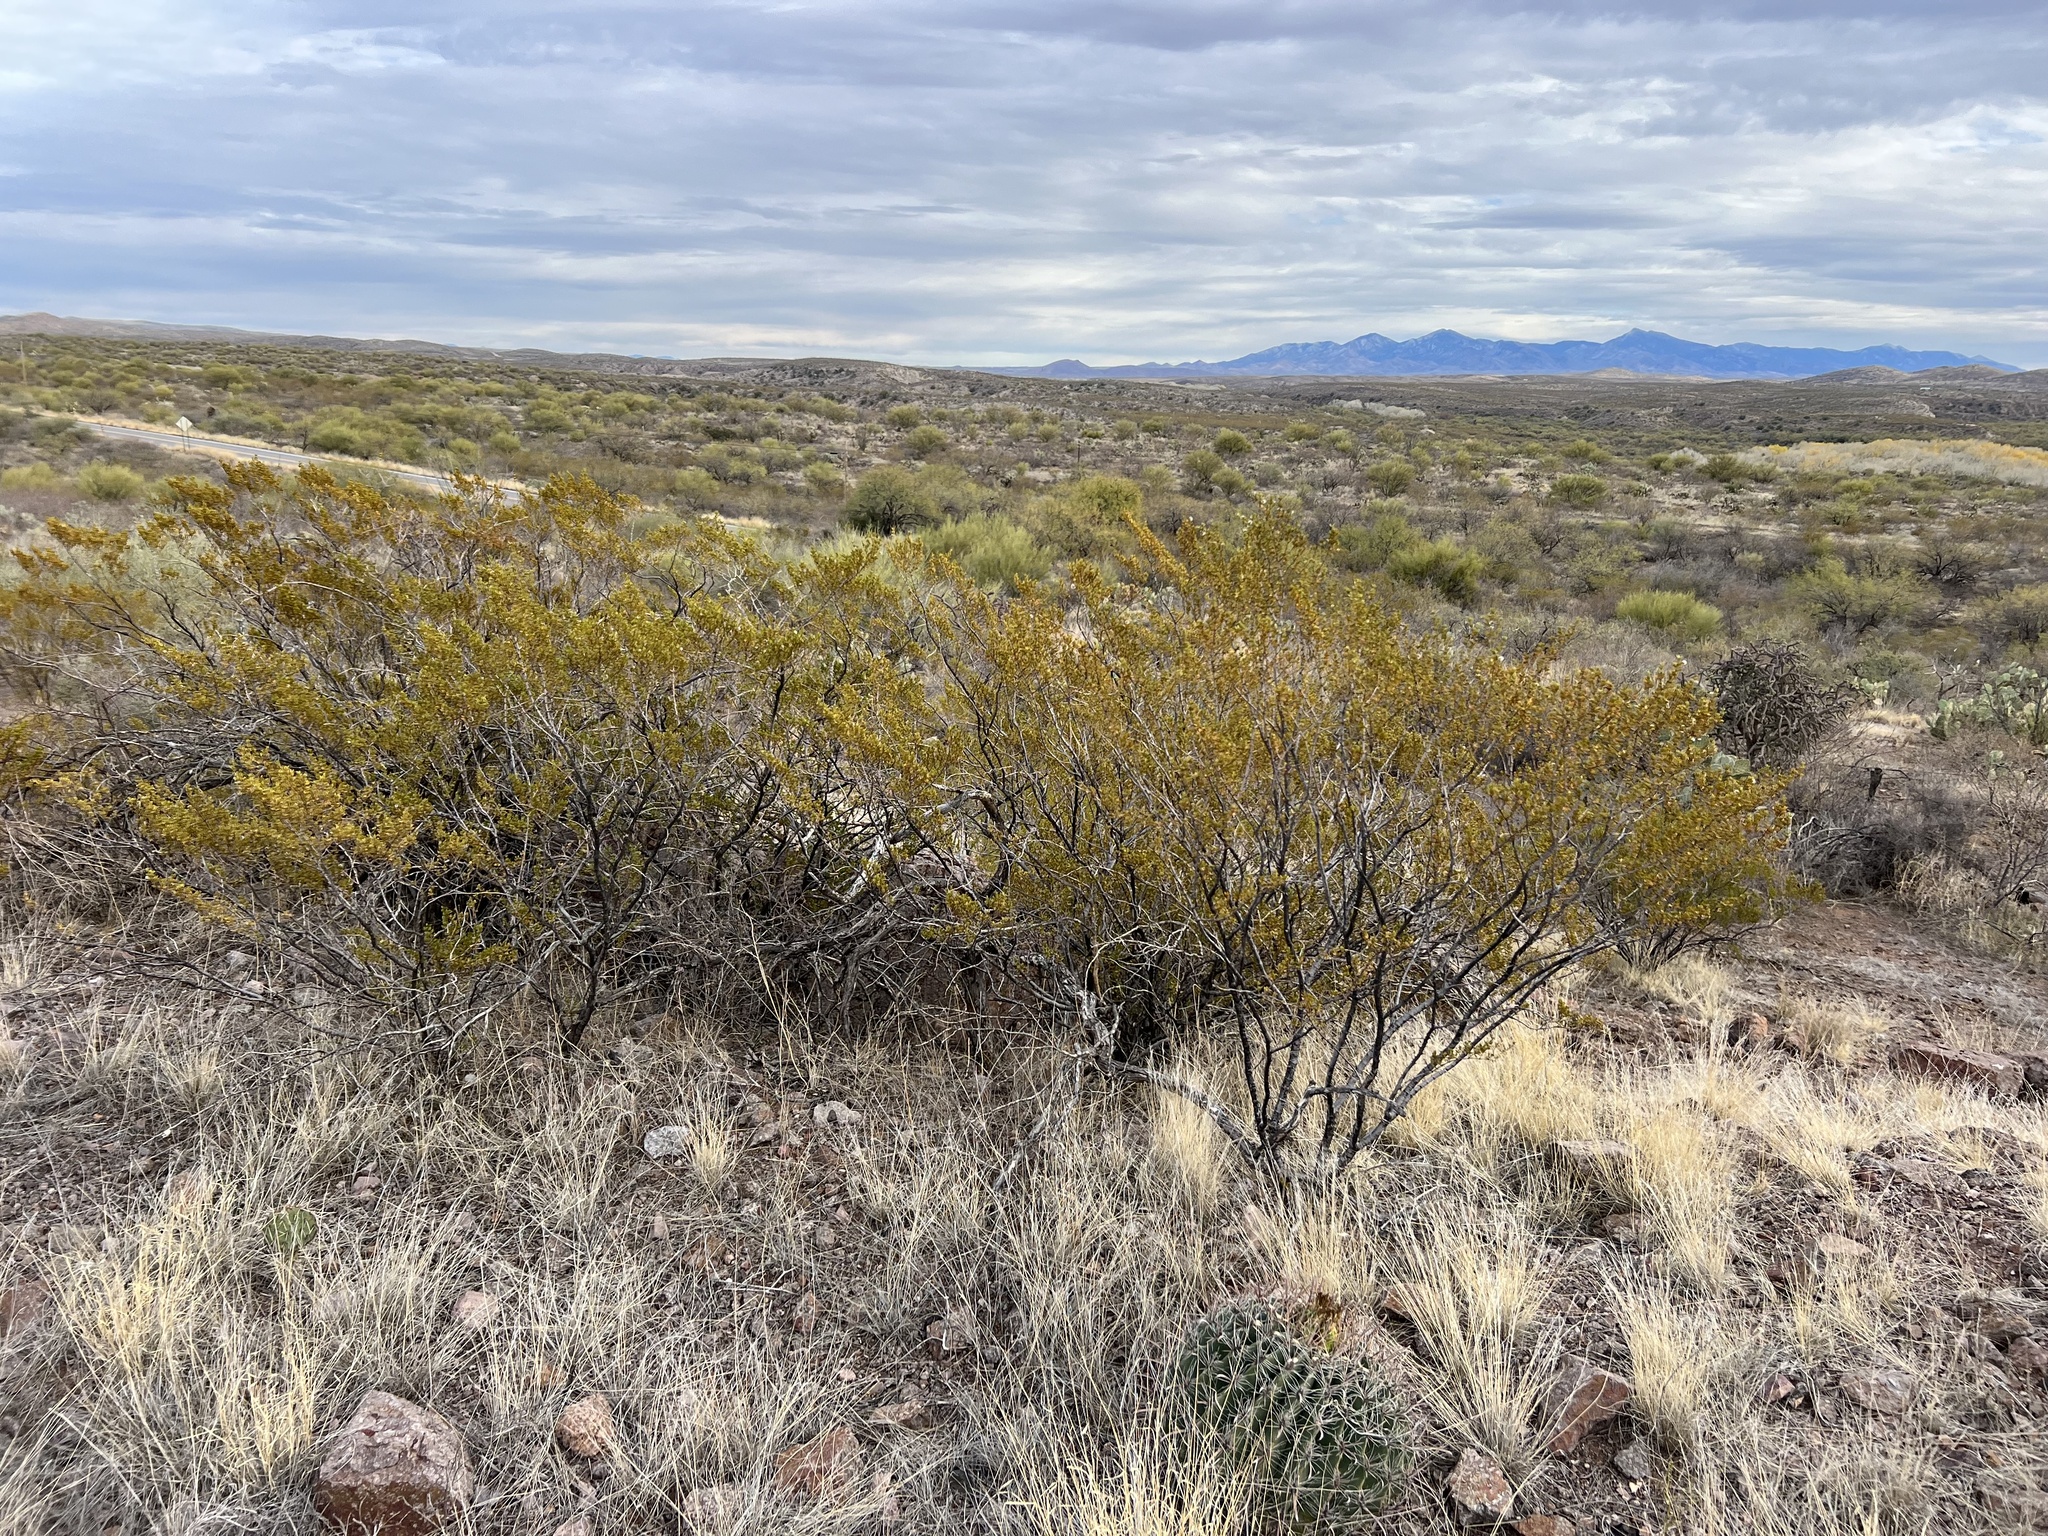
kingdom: Plantae
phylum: Tracheophyta
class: Magnoliopsida
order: Zygophyllales
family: Zygophyllaceae
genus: Larrea
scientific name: Larrea tridentata
